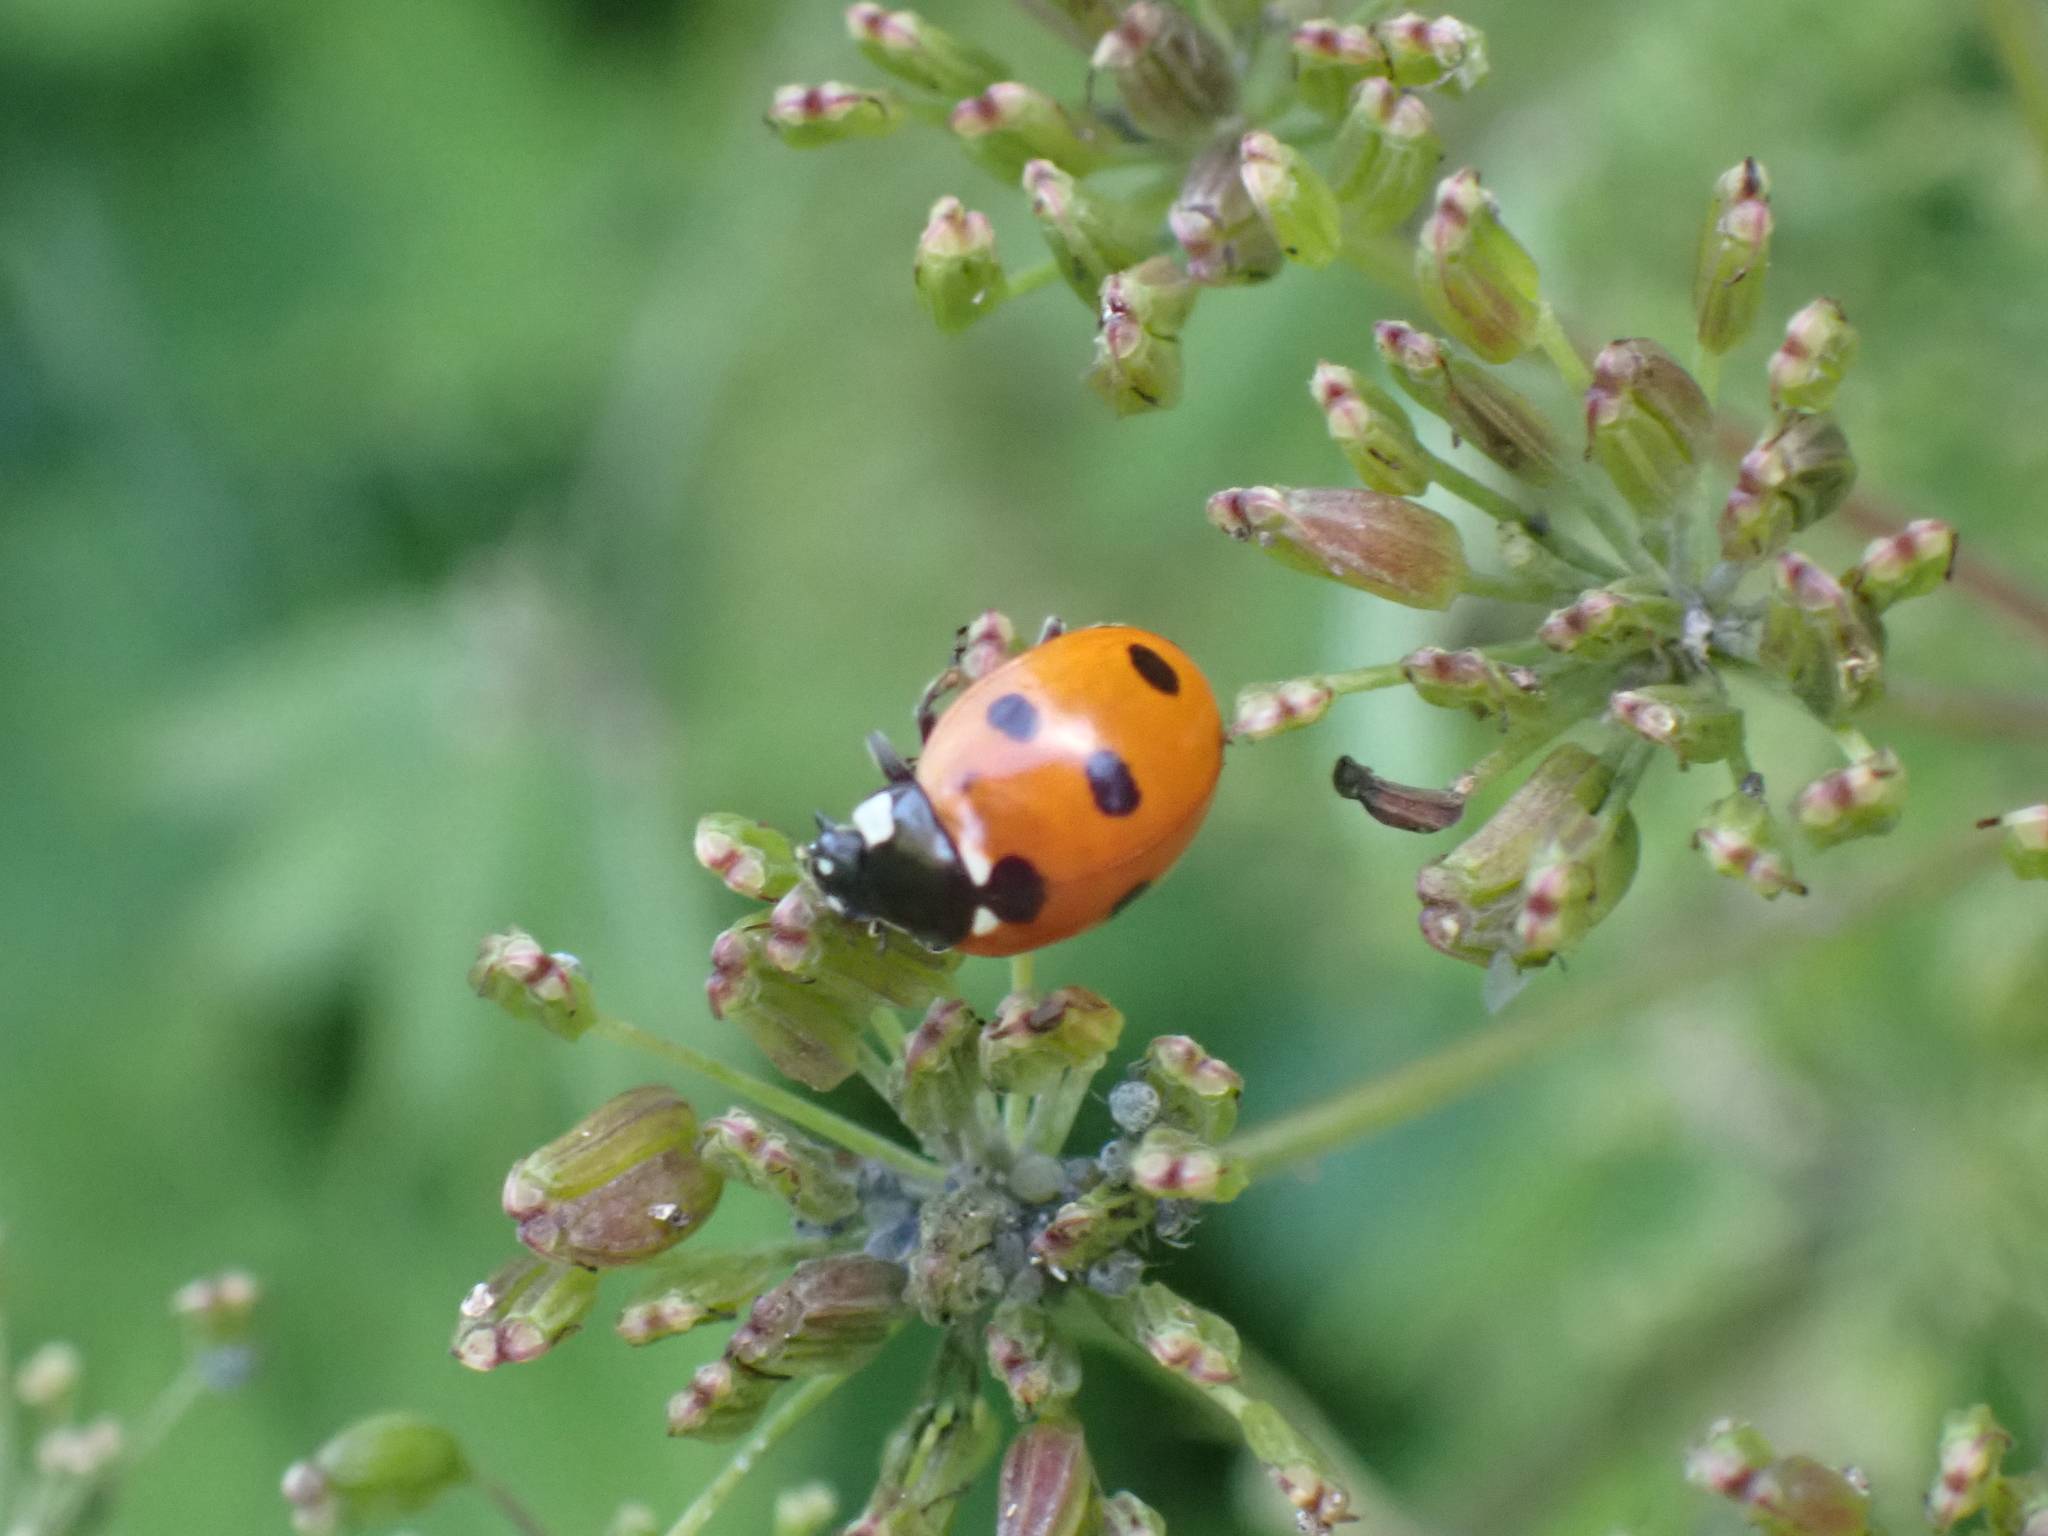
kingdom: Animalia
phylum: Arthropoda
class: Insecta
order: Coleoptera
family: Coccinellidae
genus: Coccinella
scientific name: Coccinella septempunctata
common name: Sevenspotted lady beetle
